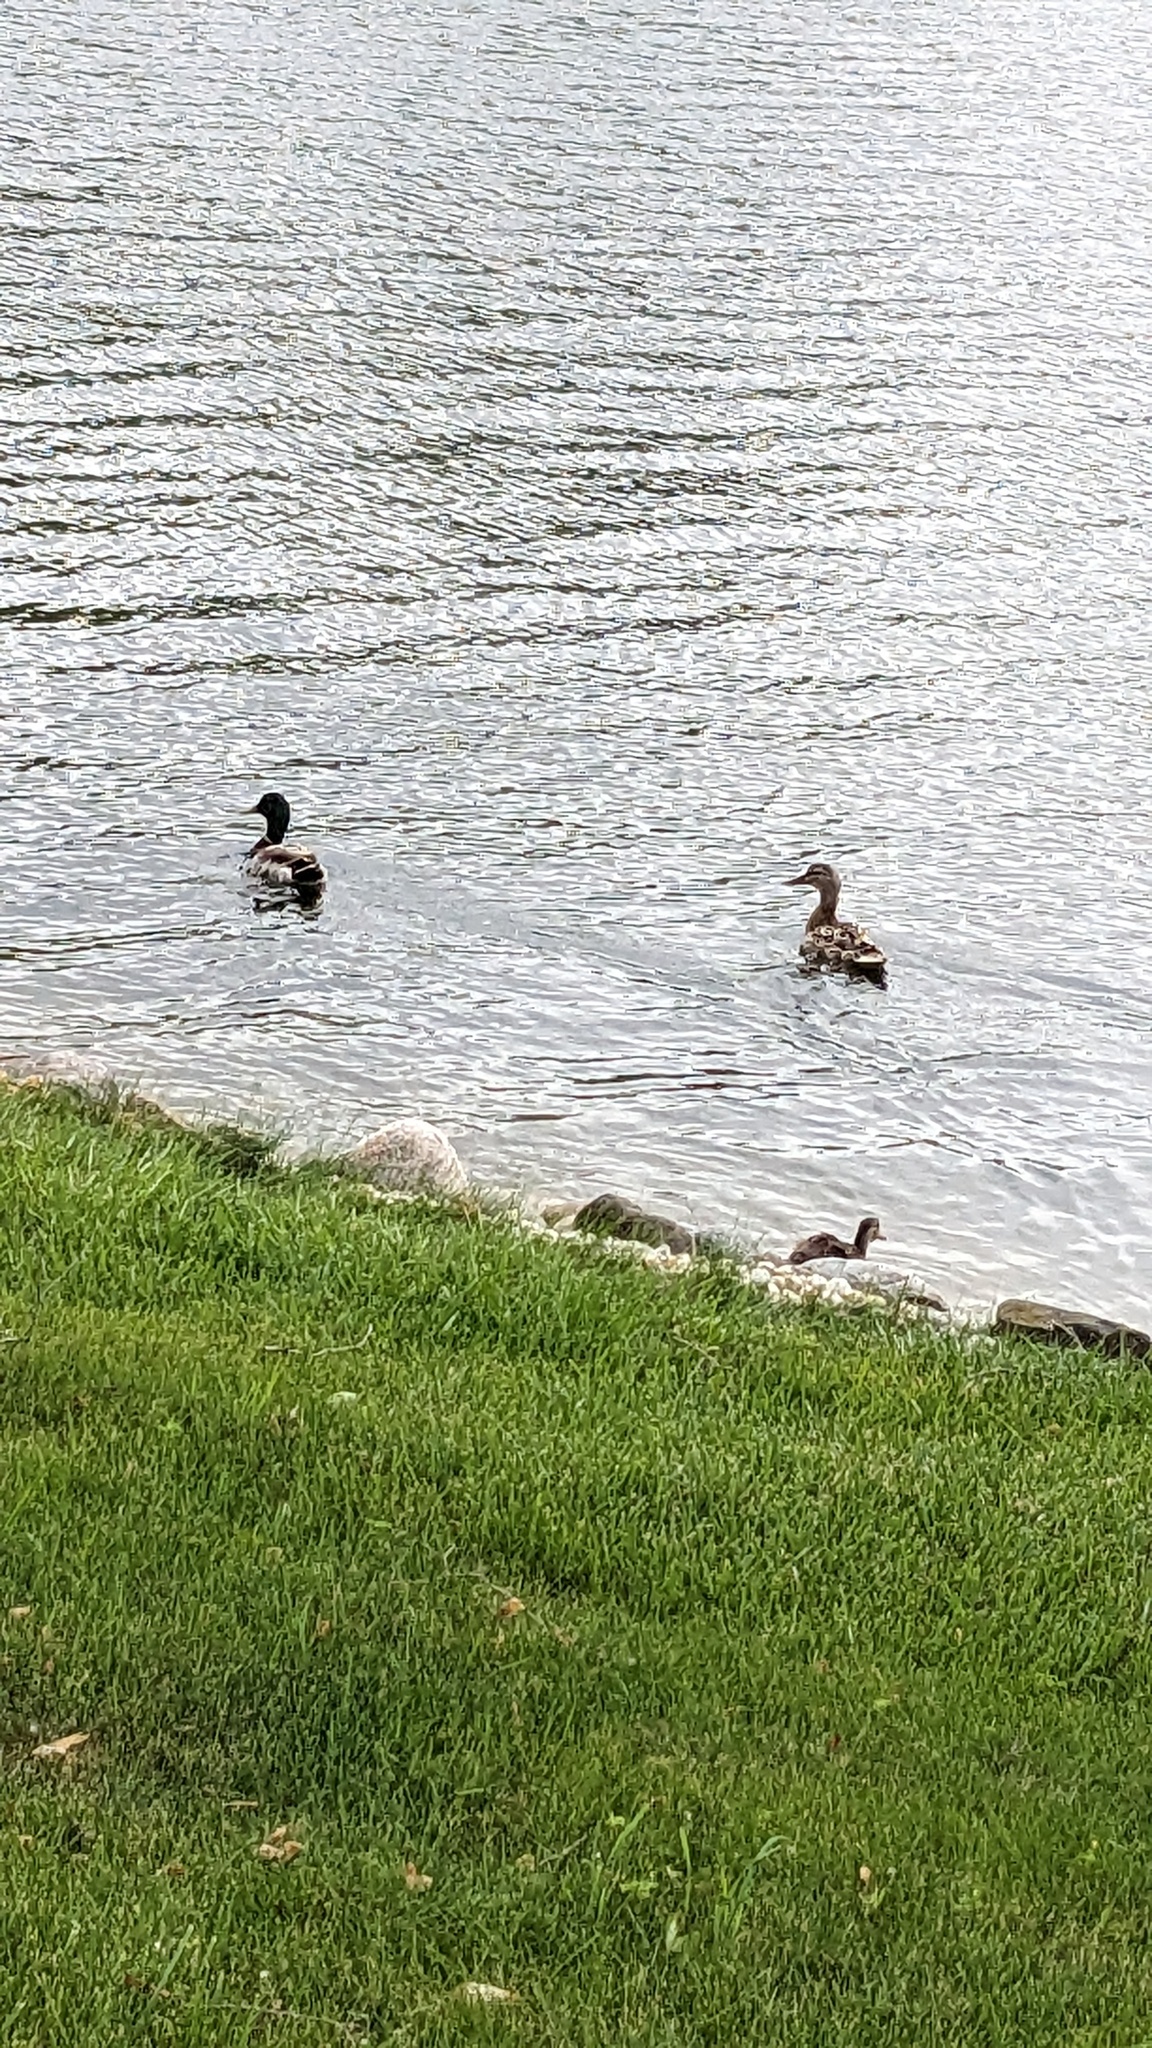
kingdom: Animalia
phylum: Chordata
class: Aves
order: Anseriformes
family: Anatidae
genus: Anas
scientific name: Anas platyrhynchos
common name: Mallard
